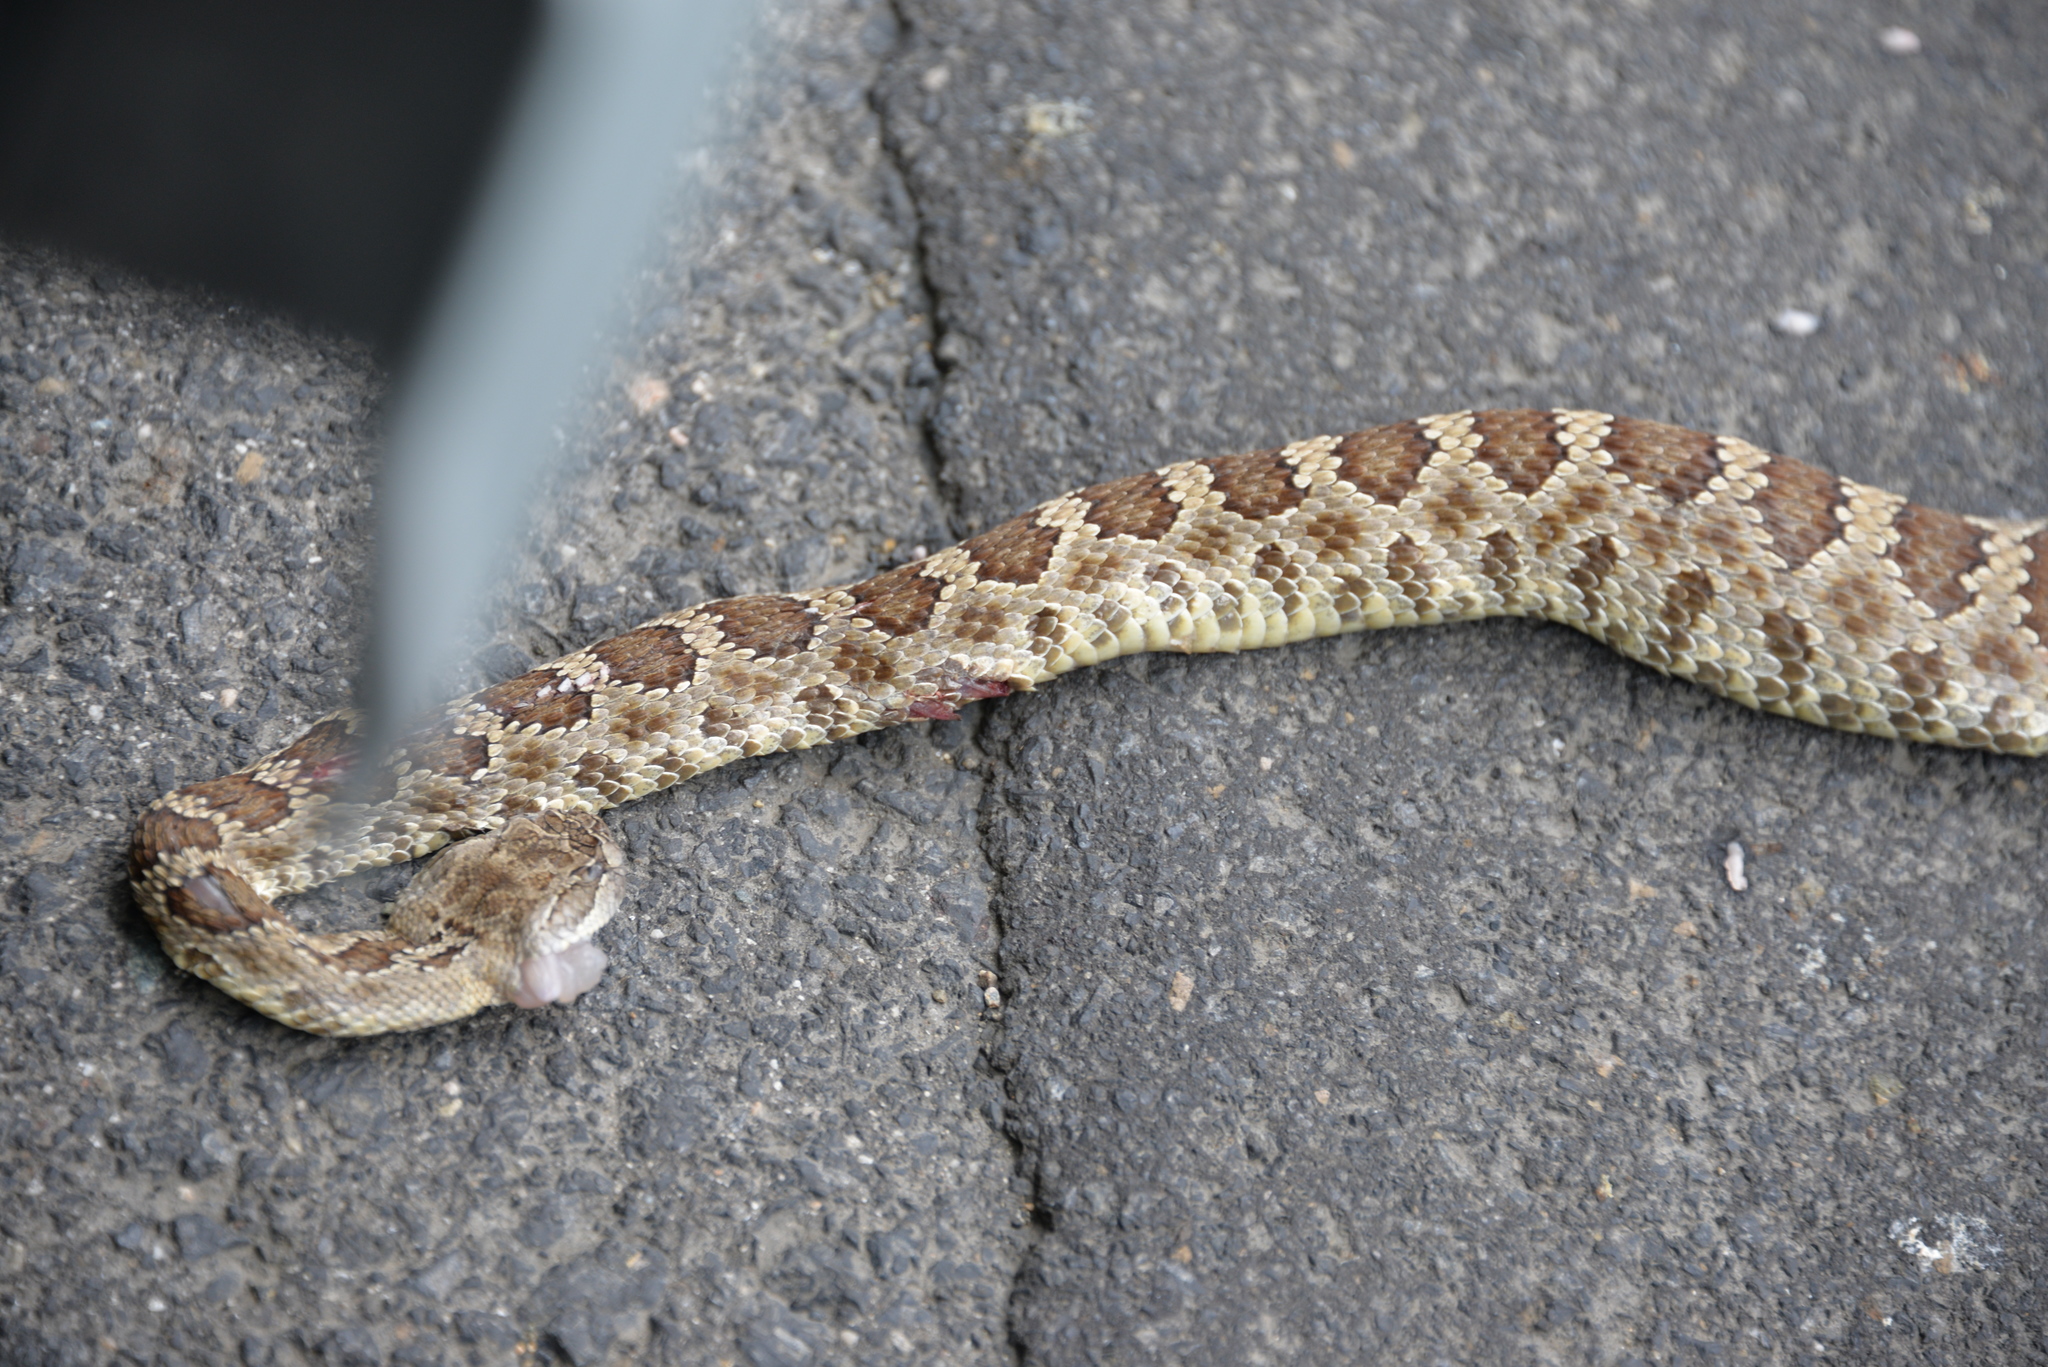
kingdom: Animalia
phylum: Chordata
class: Squamata
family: Viperidae
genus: Crotalus
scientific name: Crotalus oreganus
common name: Abyssus
